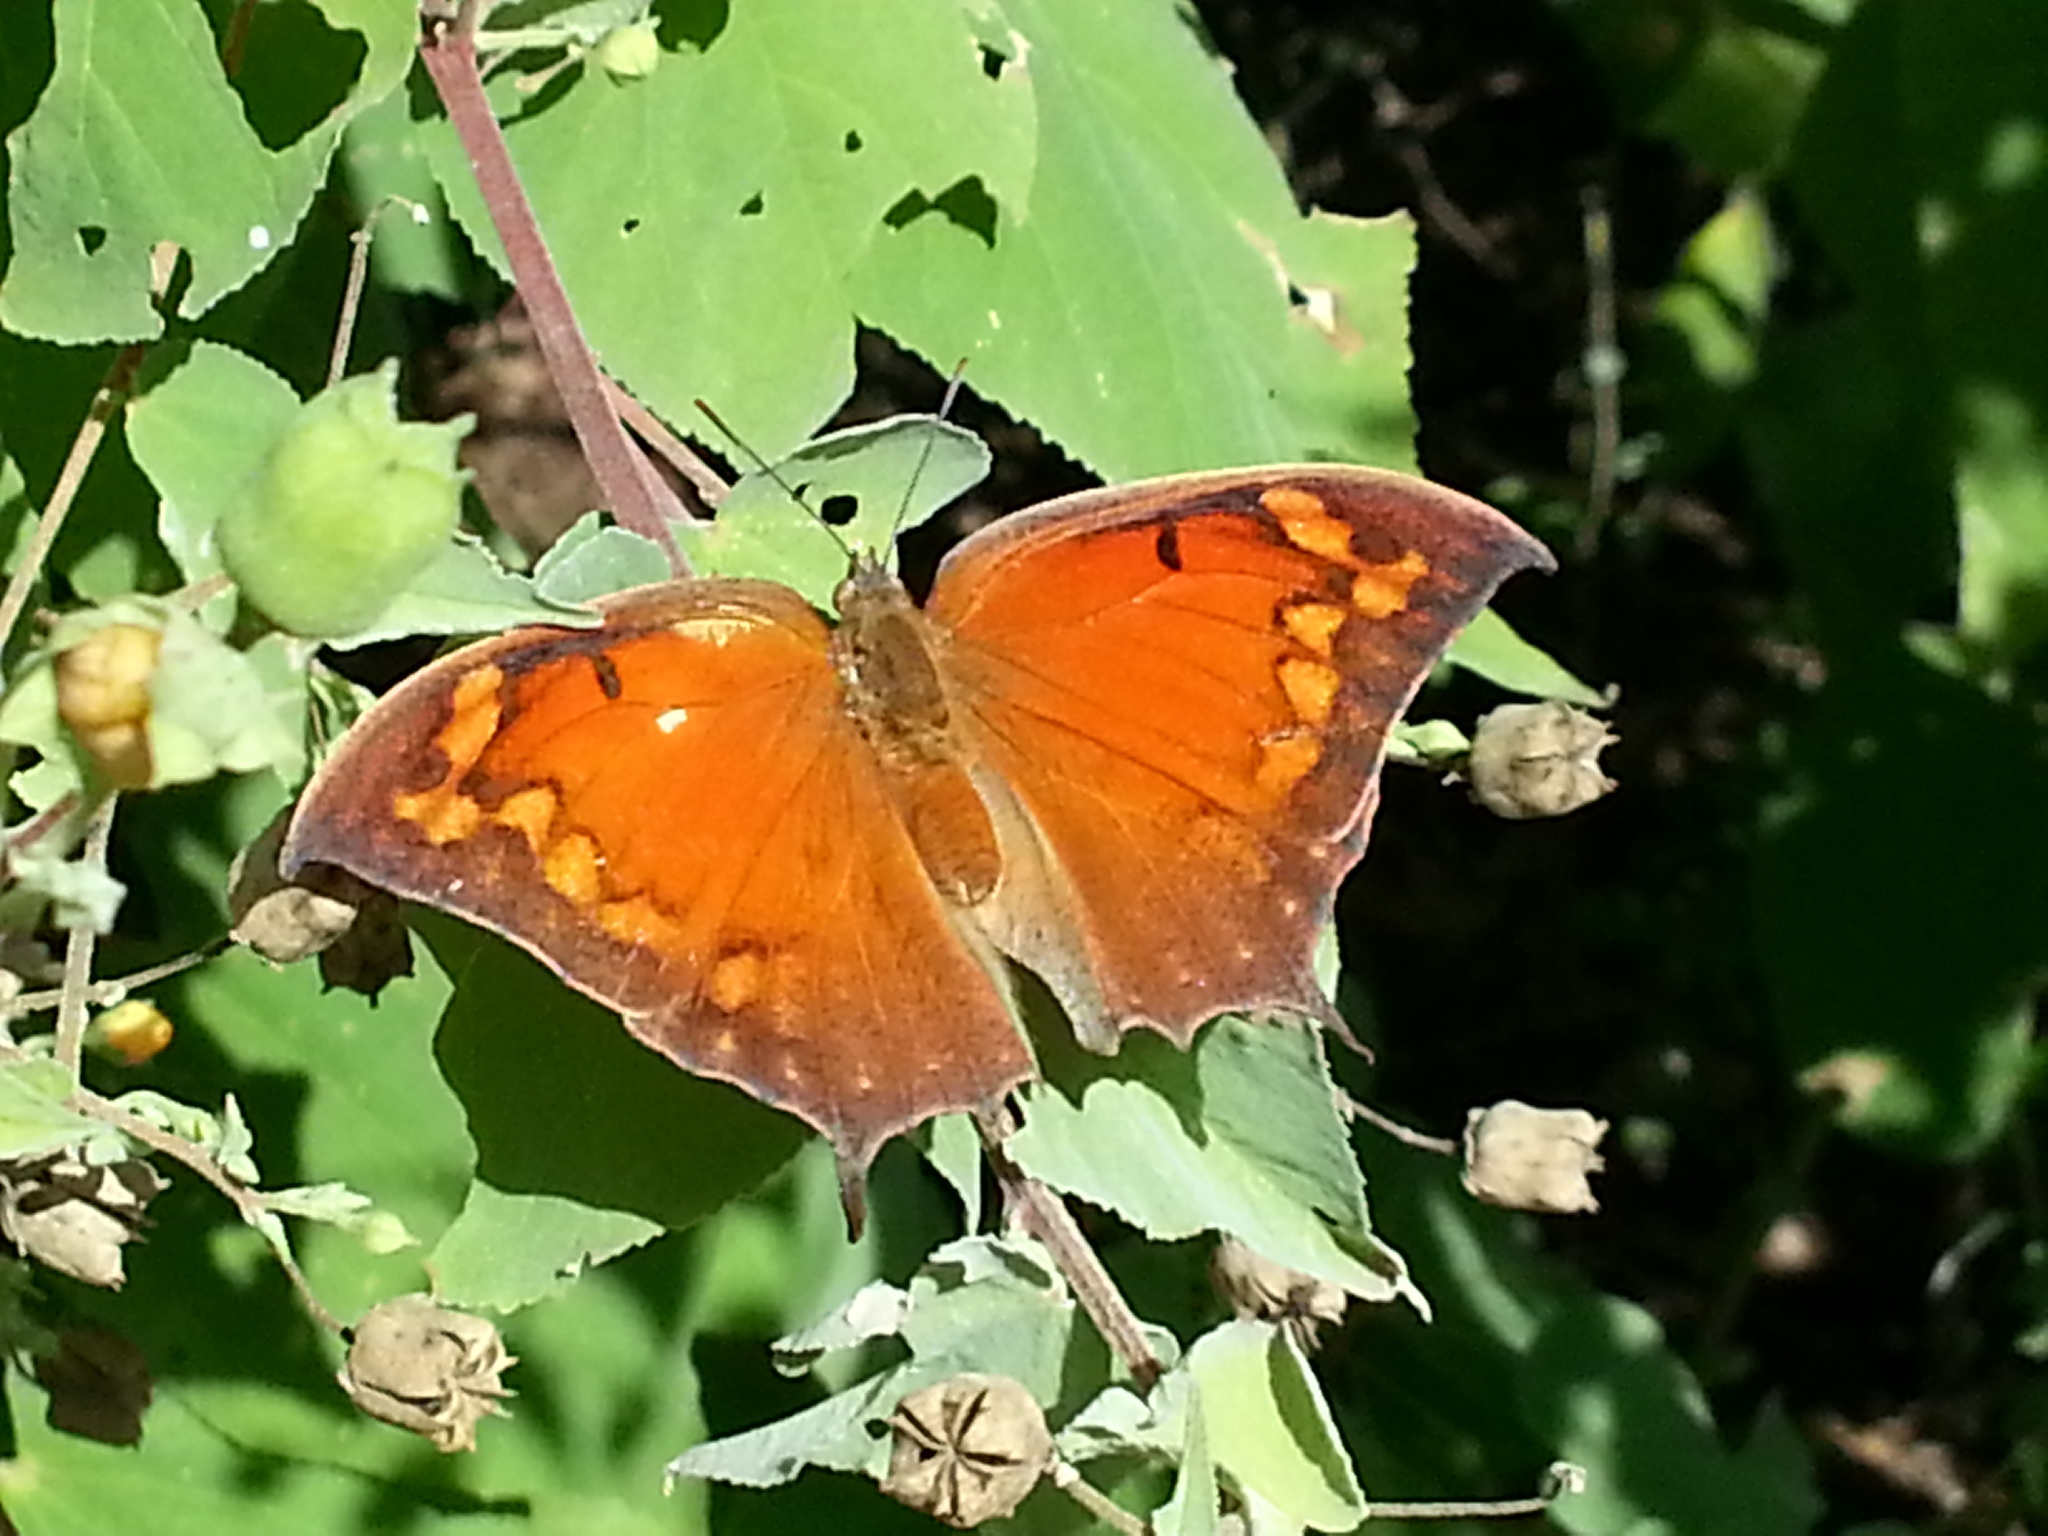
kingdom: Animalia
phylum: Arthropoda
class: Insecta
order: Lepidoptera
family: Nymphalidae
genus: Anaea
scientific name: Anaea aidea
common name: Tropical leafwing
